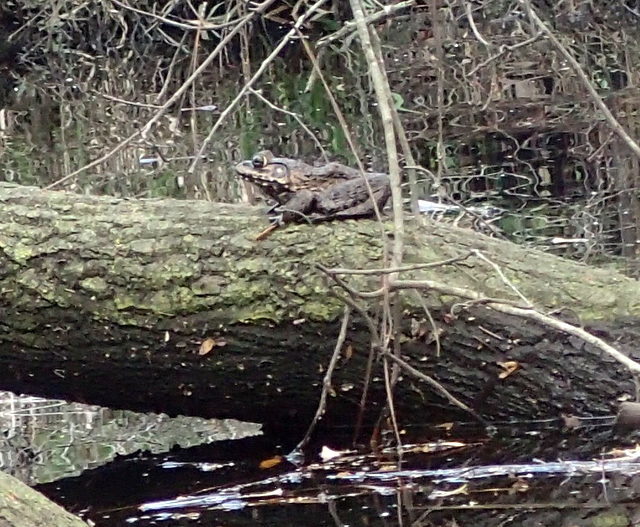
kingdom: Animalia
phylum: Chordata
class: Amphibia
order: Anura
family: Ranidae
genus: Lithobates
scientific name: Lithobates heckscheri
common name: River frog
